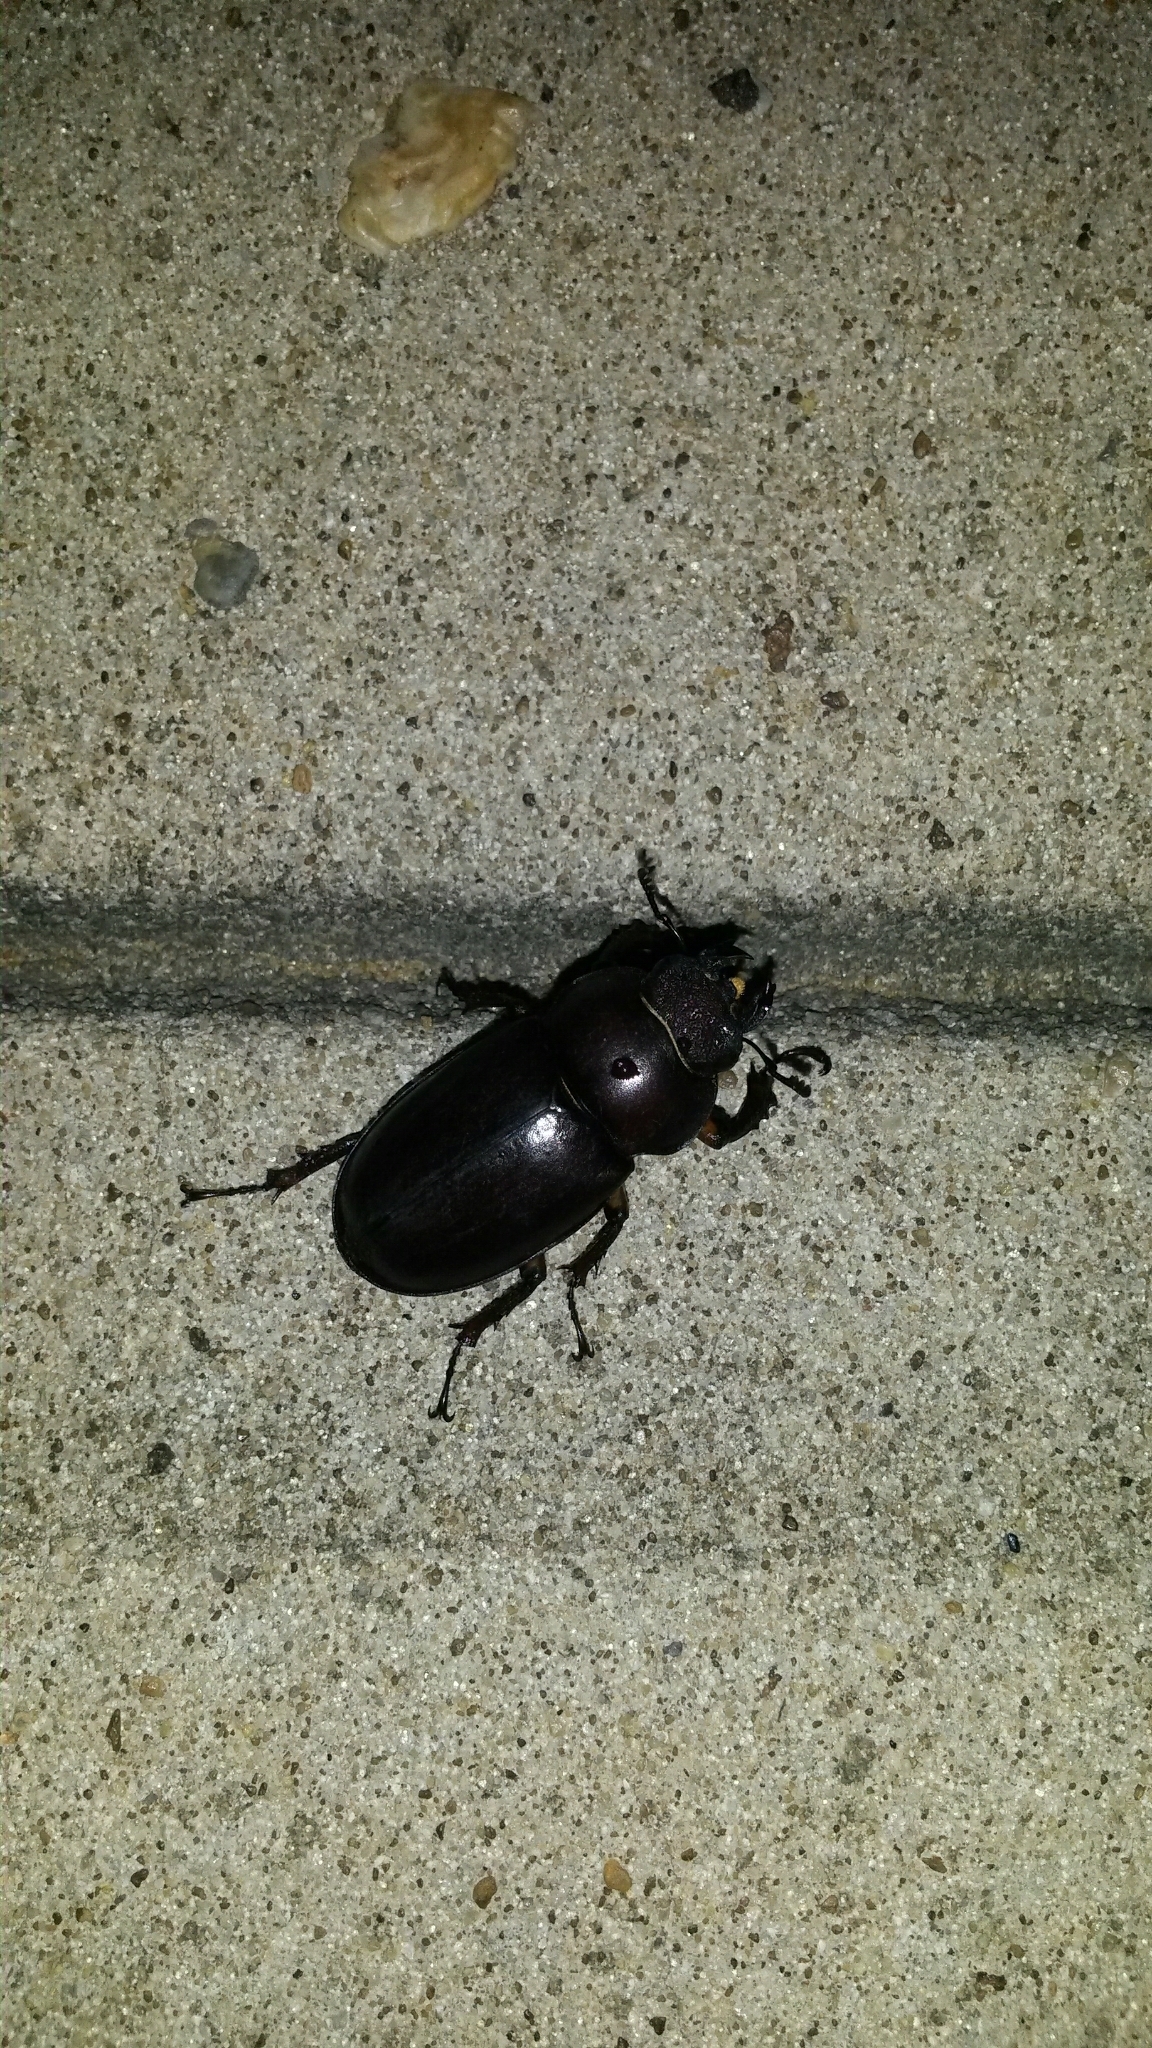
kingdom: Animalia
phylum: Arthropoda
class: Insecta
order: Coleoptera
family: Lucanidae
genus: Lucanus
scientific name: Lucanus capreolus
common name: Stag beetle
